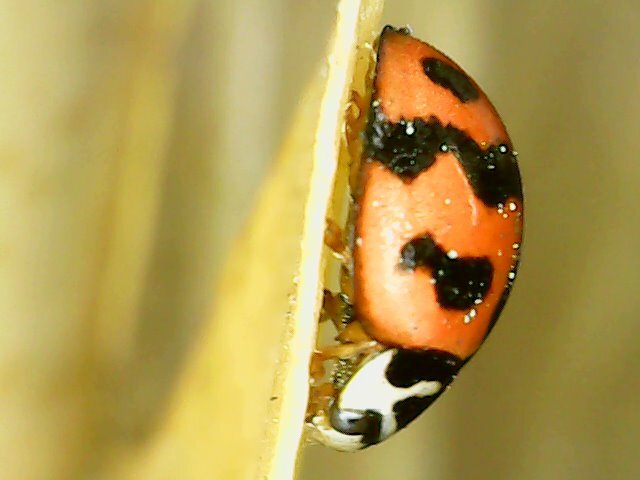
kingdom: Animalia
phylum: Arthropoda
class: Insecta
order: Coleoptera
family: Coccinellidae
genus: Cheilomenes
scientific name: Cheilomenes sexmaculata
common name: Ladybird beetle
